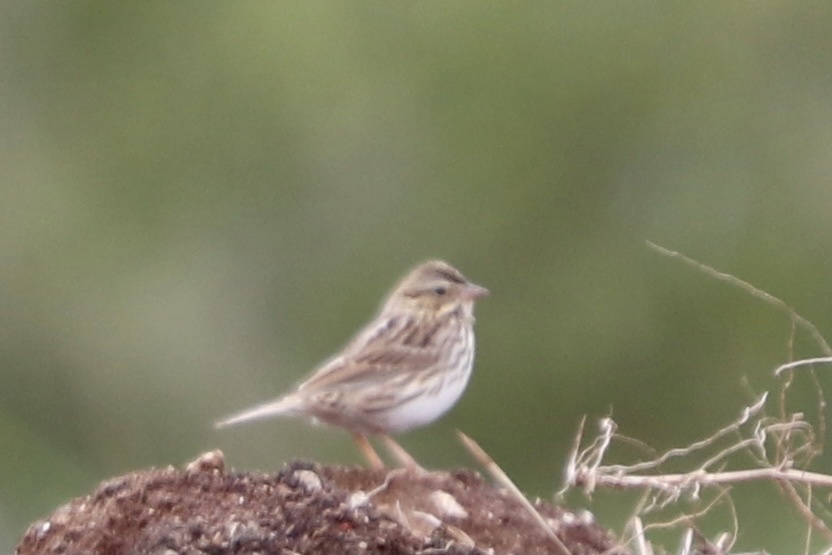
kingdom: Animalia
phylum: Chordata
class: Aves
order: Passeriformes
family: Passerellidae
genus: Passerculus
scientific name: Passerculus sandwichensis
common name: Savannah sparrow
